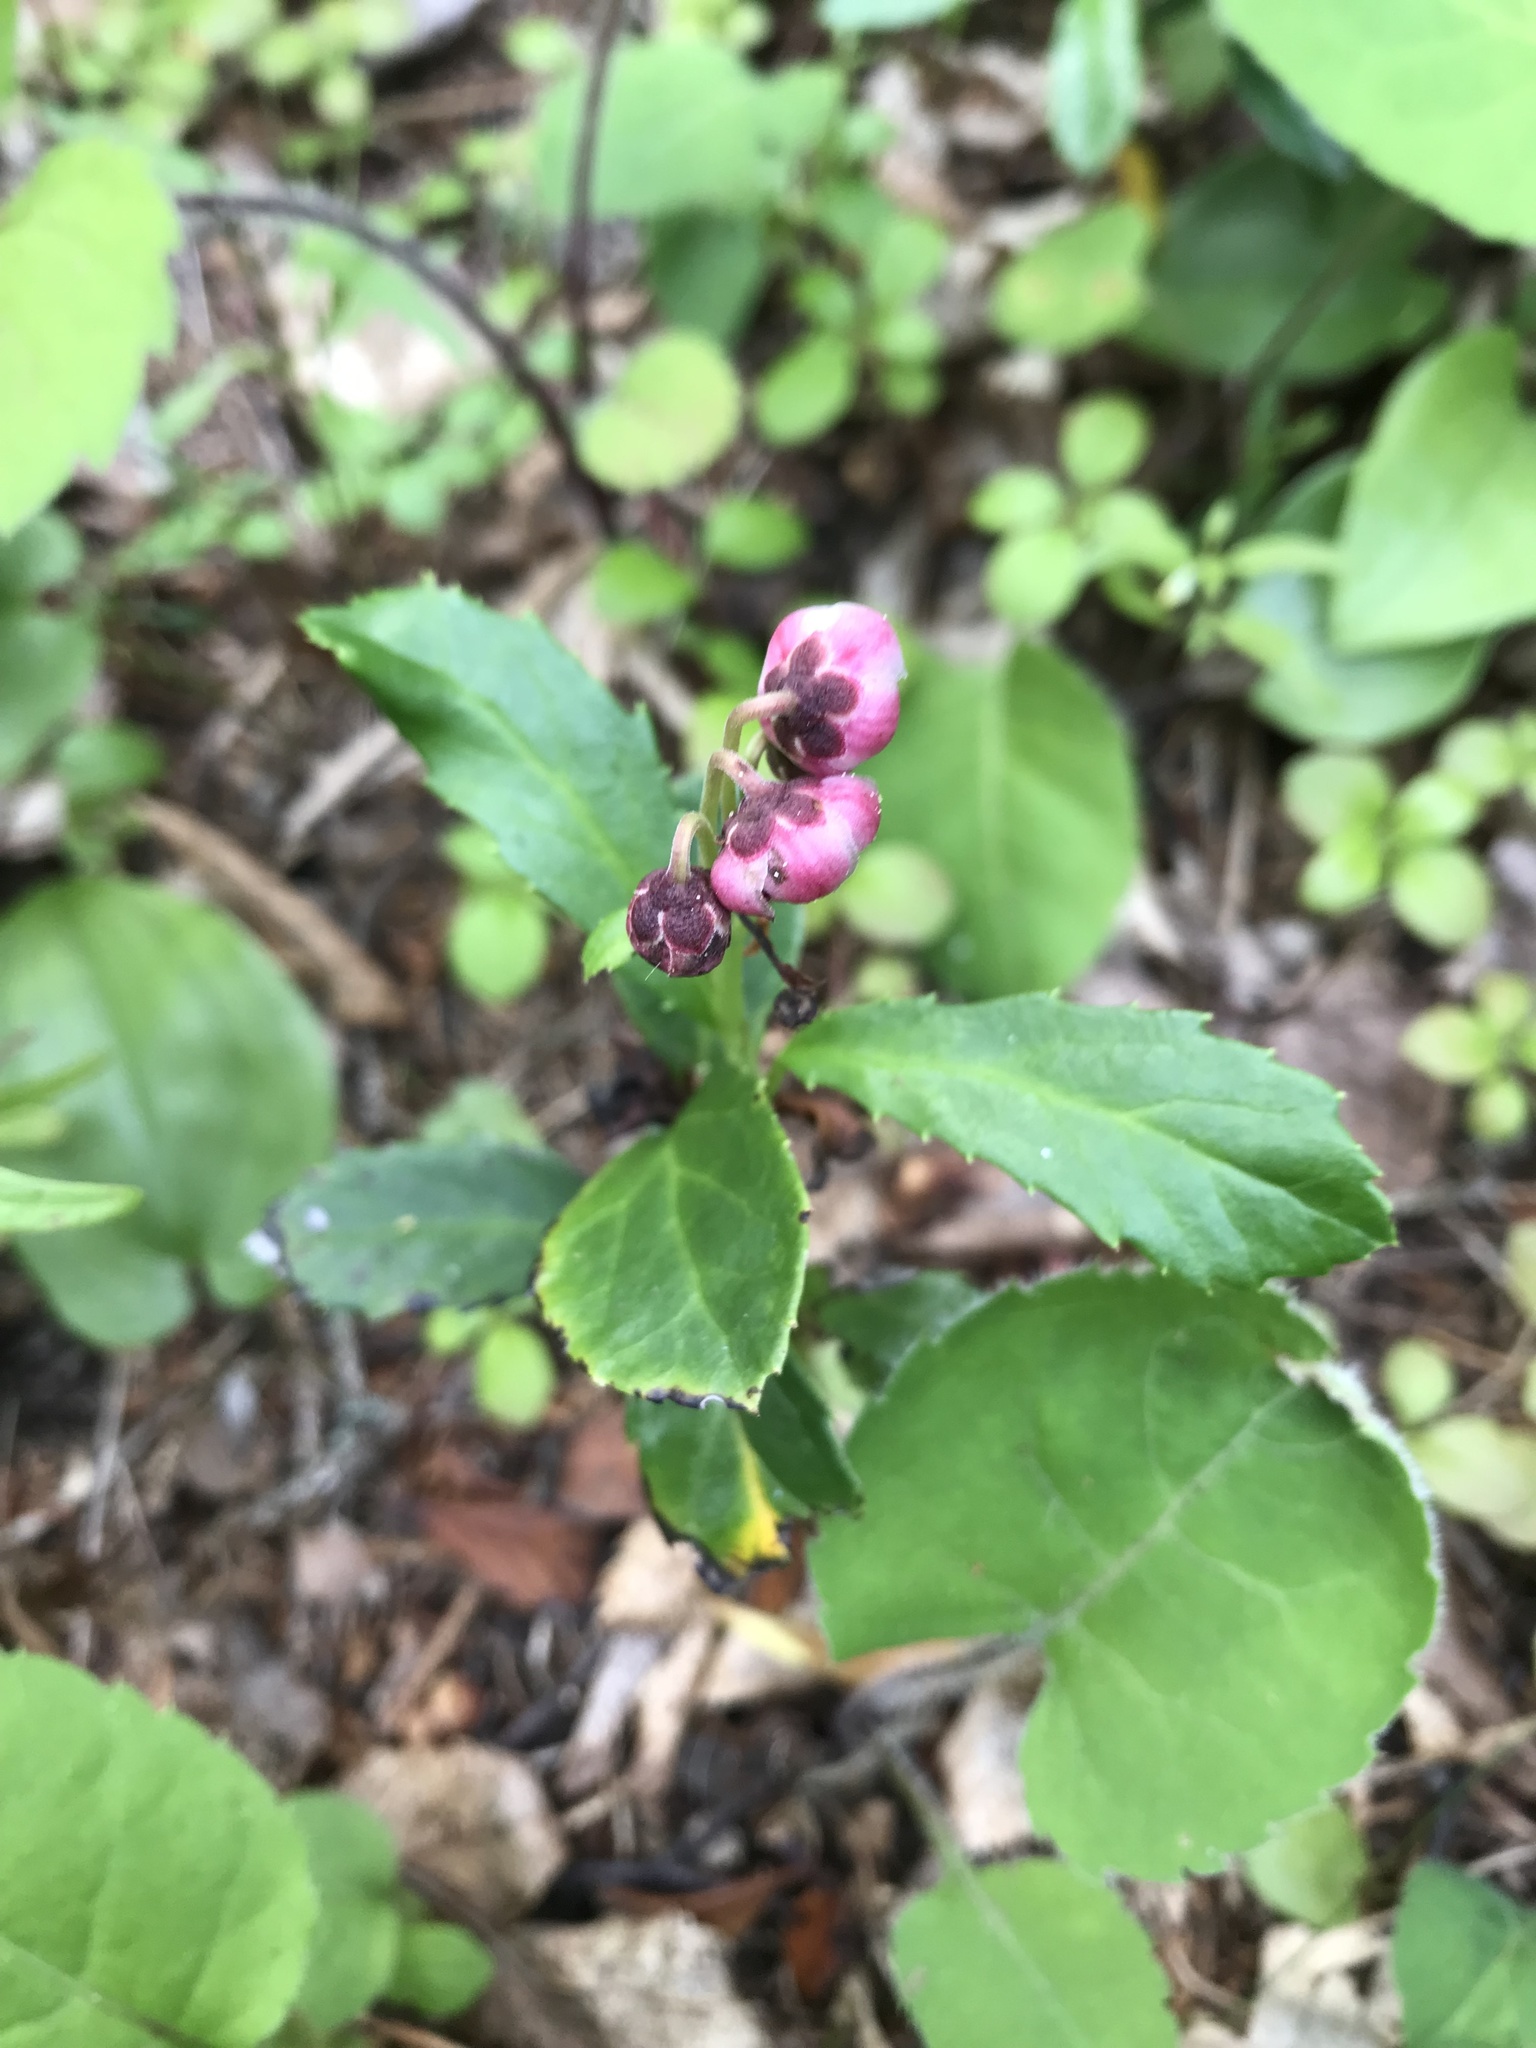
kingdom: Plantae
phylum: Tracheophyta
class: Magnoliopsida
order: Ericales
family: Ericaceae
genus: Chimaphila
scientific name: Chimaphila umbellata
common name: Pipsissewa
